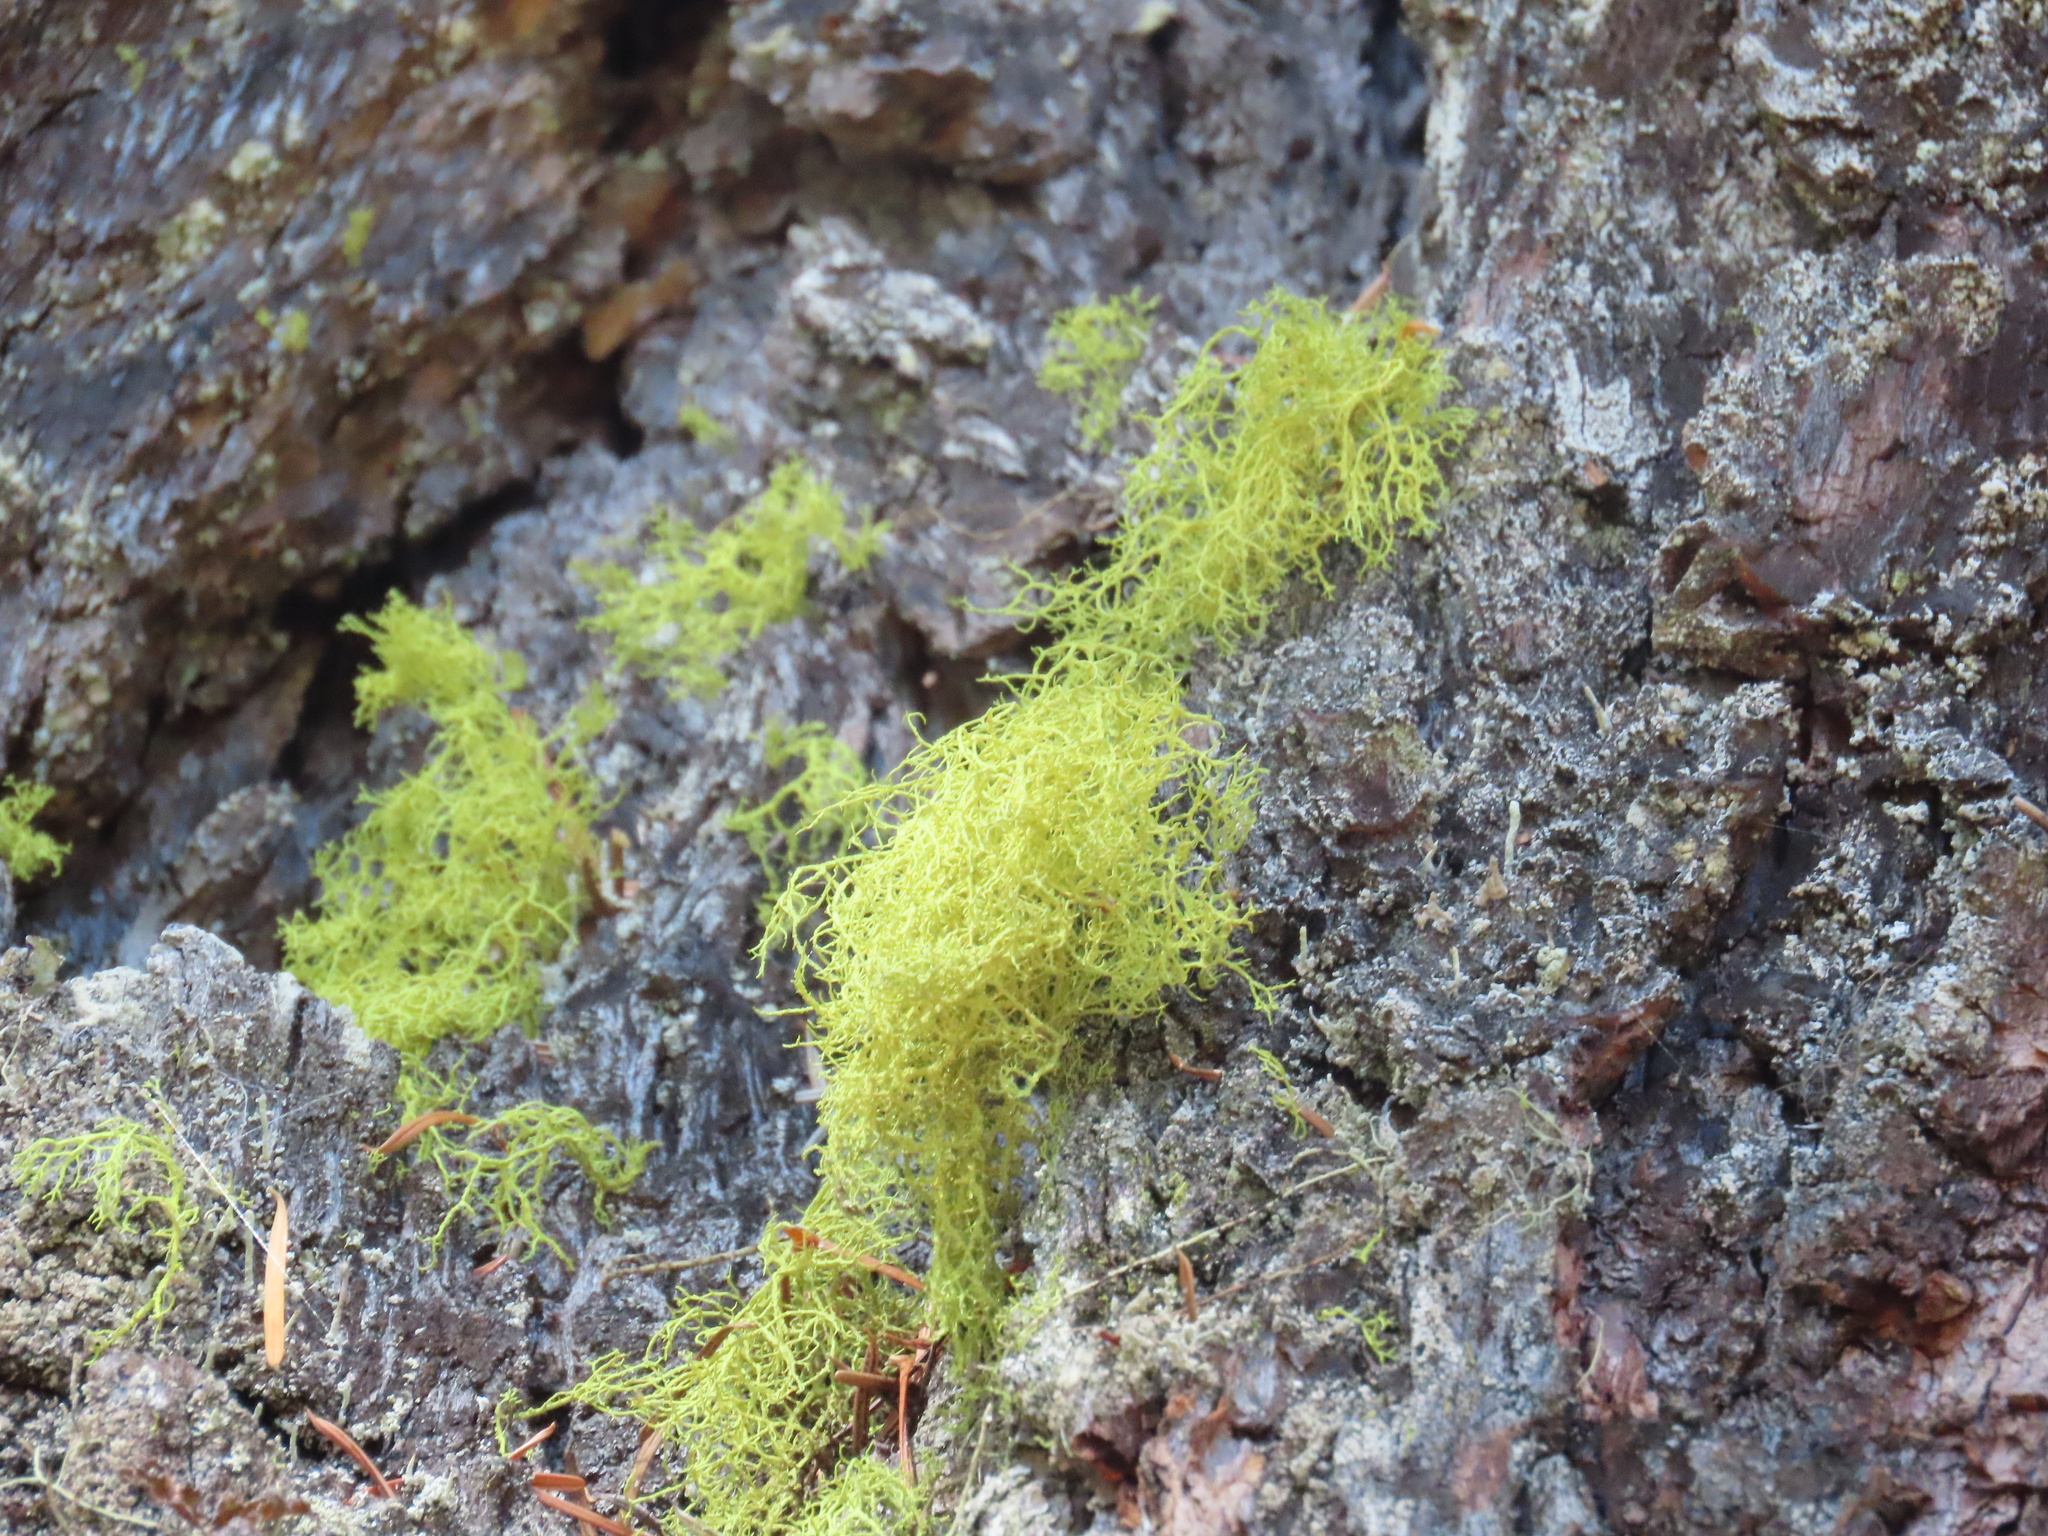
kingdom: Fungi
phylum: Ascomycota
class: Lecanoromycetes
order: Lecanorales
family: Parmeliaceae
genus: Letharia
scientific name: Letharia vulpina
